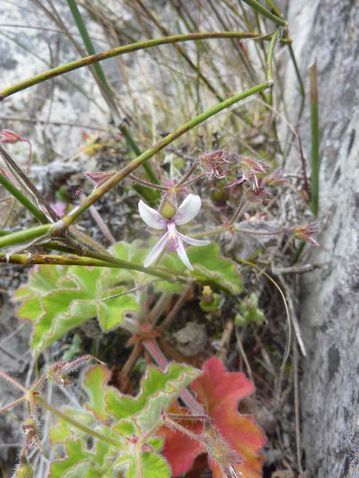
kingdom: Plantae
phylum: Tracheophyta
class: Magnoliopsida
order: Geraniales
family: Geraniaceae
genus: Pelargonium
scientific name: Pelargonium tomentosum
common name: Peppermint-scented geranium
